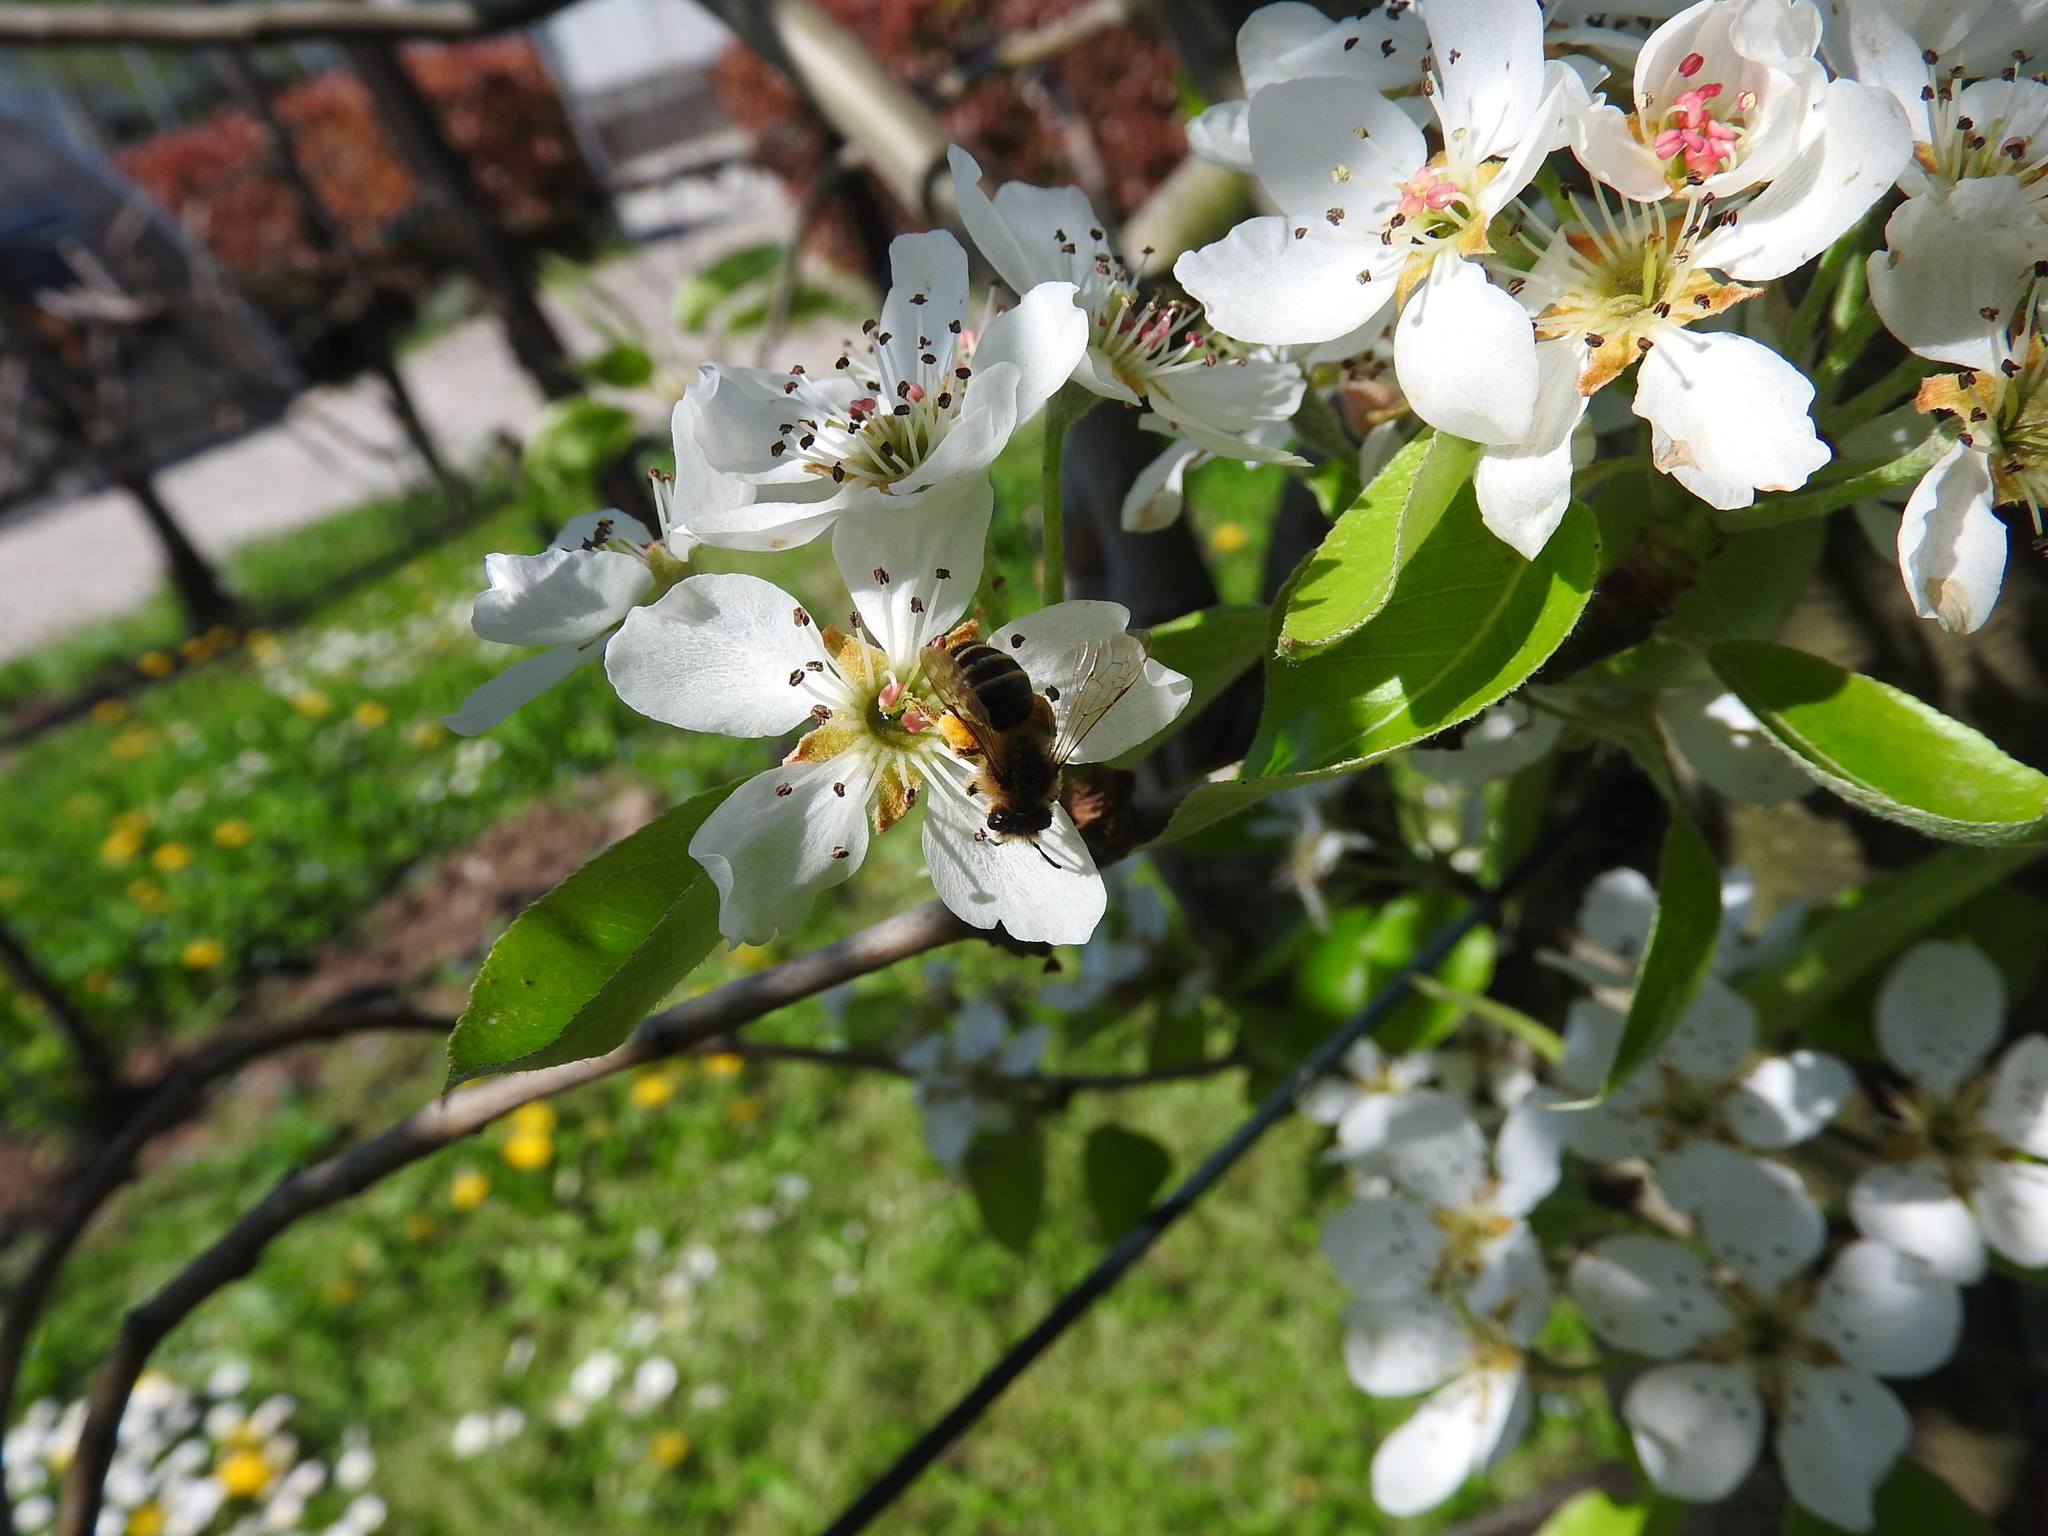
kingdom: Animalia
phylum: Arthropoda
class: Insecta
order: Hymenoptera
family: Apidae
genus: Apis
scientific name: Apis mellifera
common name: Honey bee
